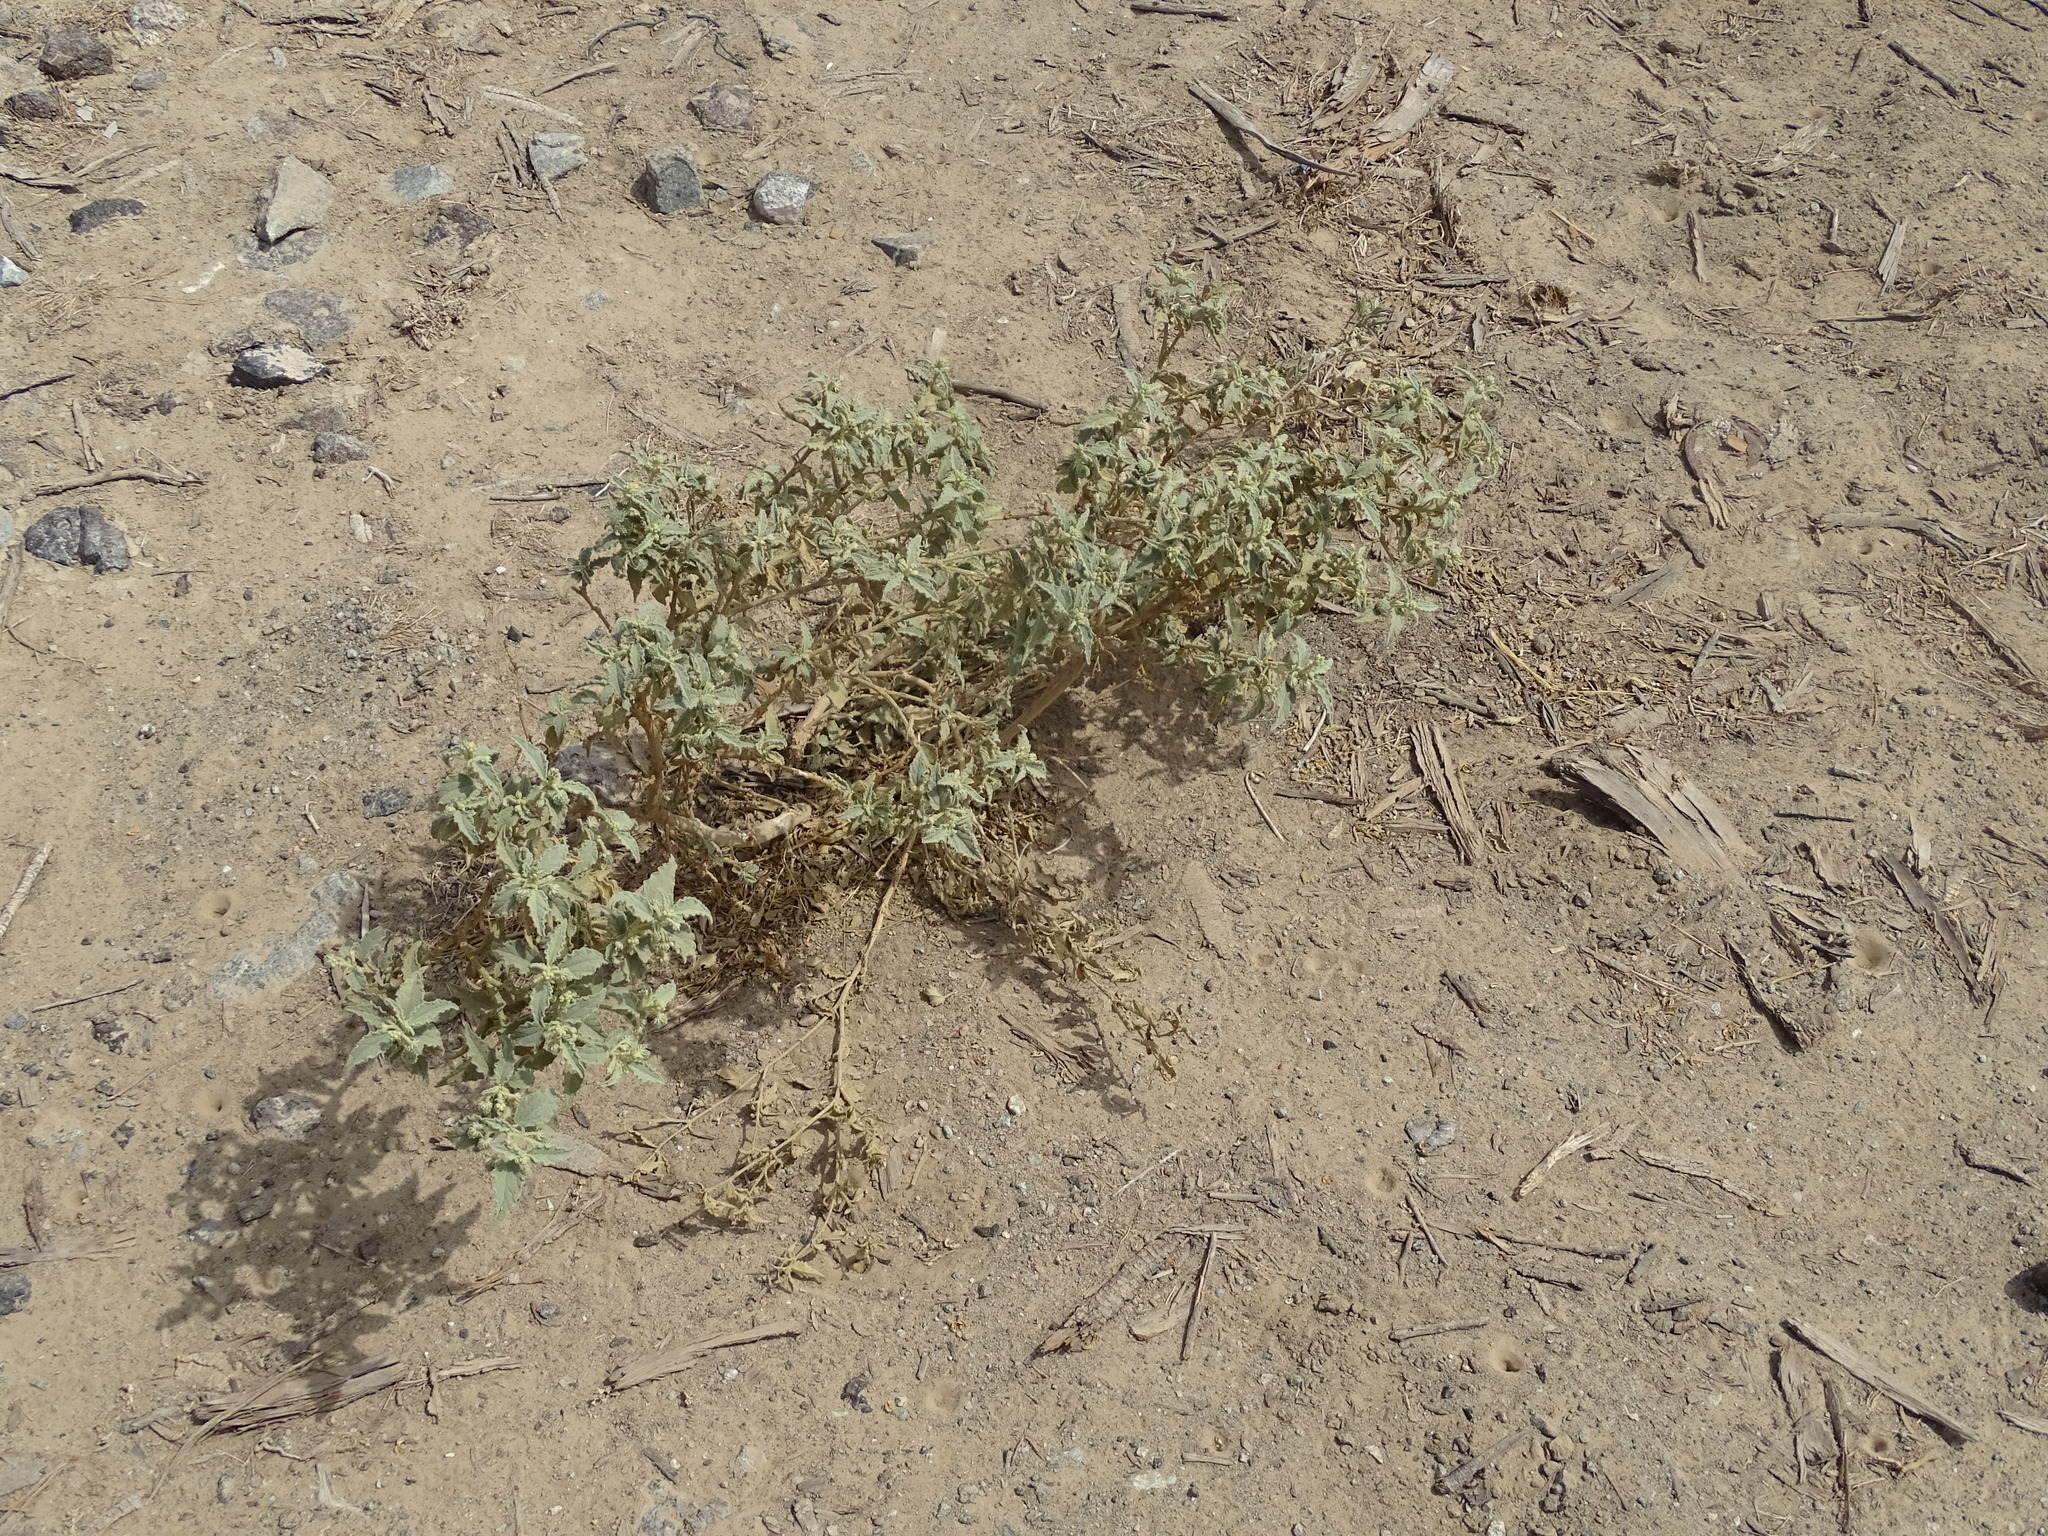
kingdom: Plantae
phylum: Tracheophyta
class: Magnoliopsida
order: Malpighiales
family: Euphorbiaceae
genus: Chrozophora
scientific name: Chrozophora oblongifolia
